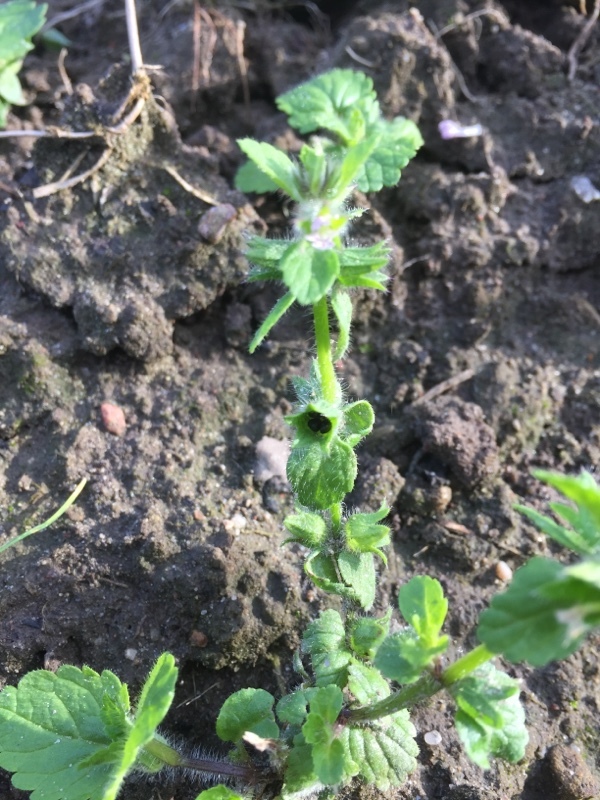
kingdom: Plantae
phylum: Tracheophyta
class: Magnoliopsida
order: Lamiales
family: Lamiaceae
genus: Stachys
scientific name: Stachys arvensis
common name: Field woundwort
